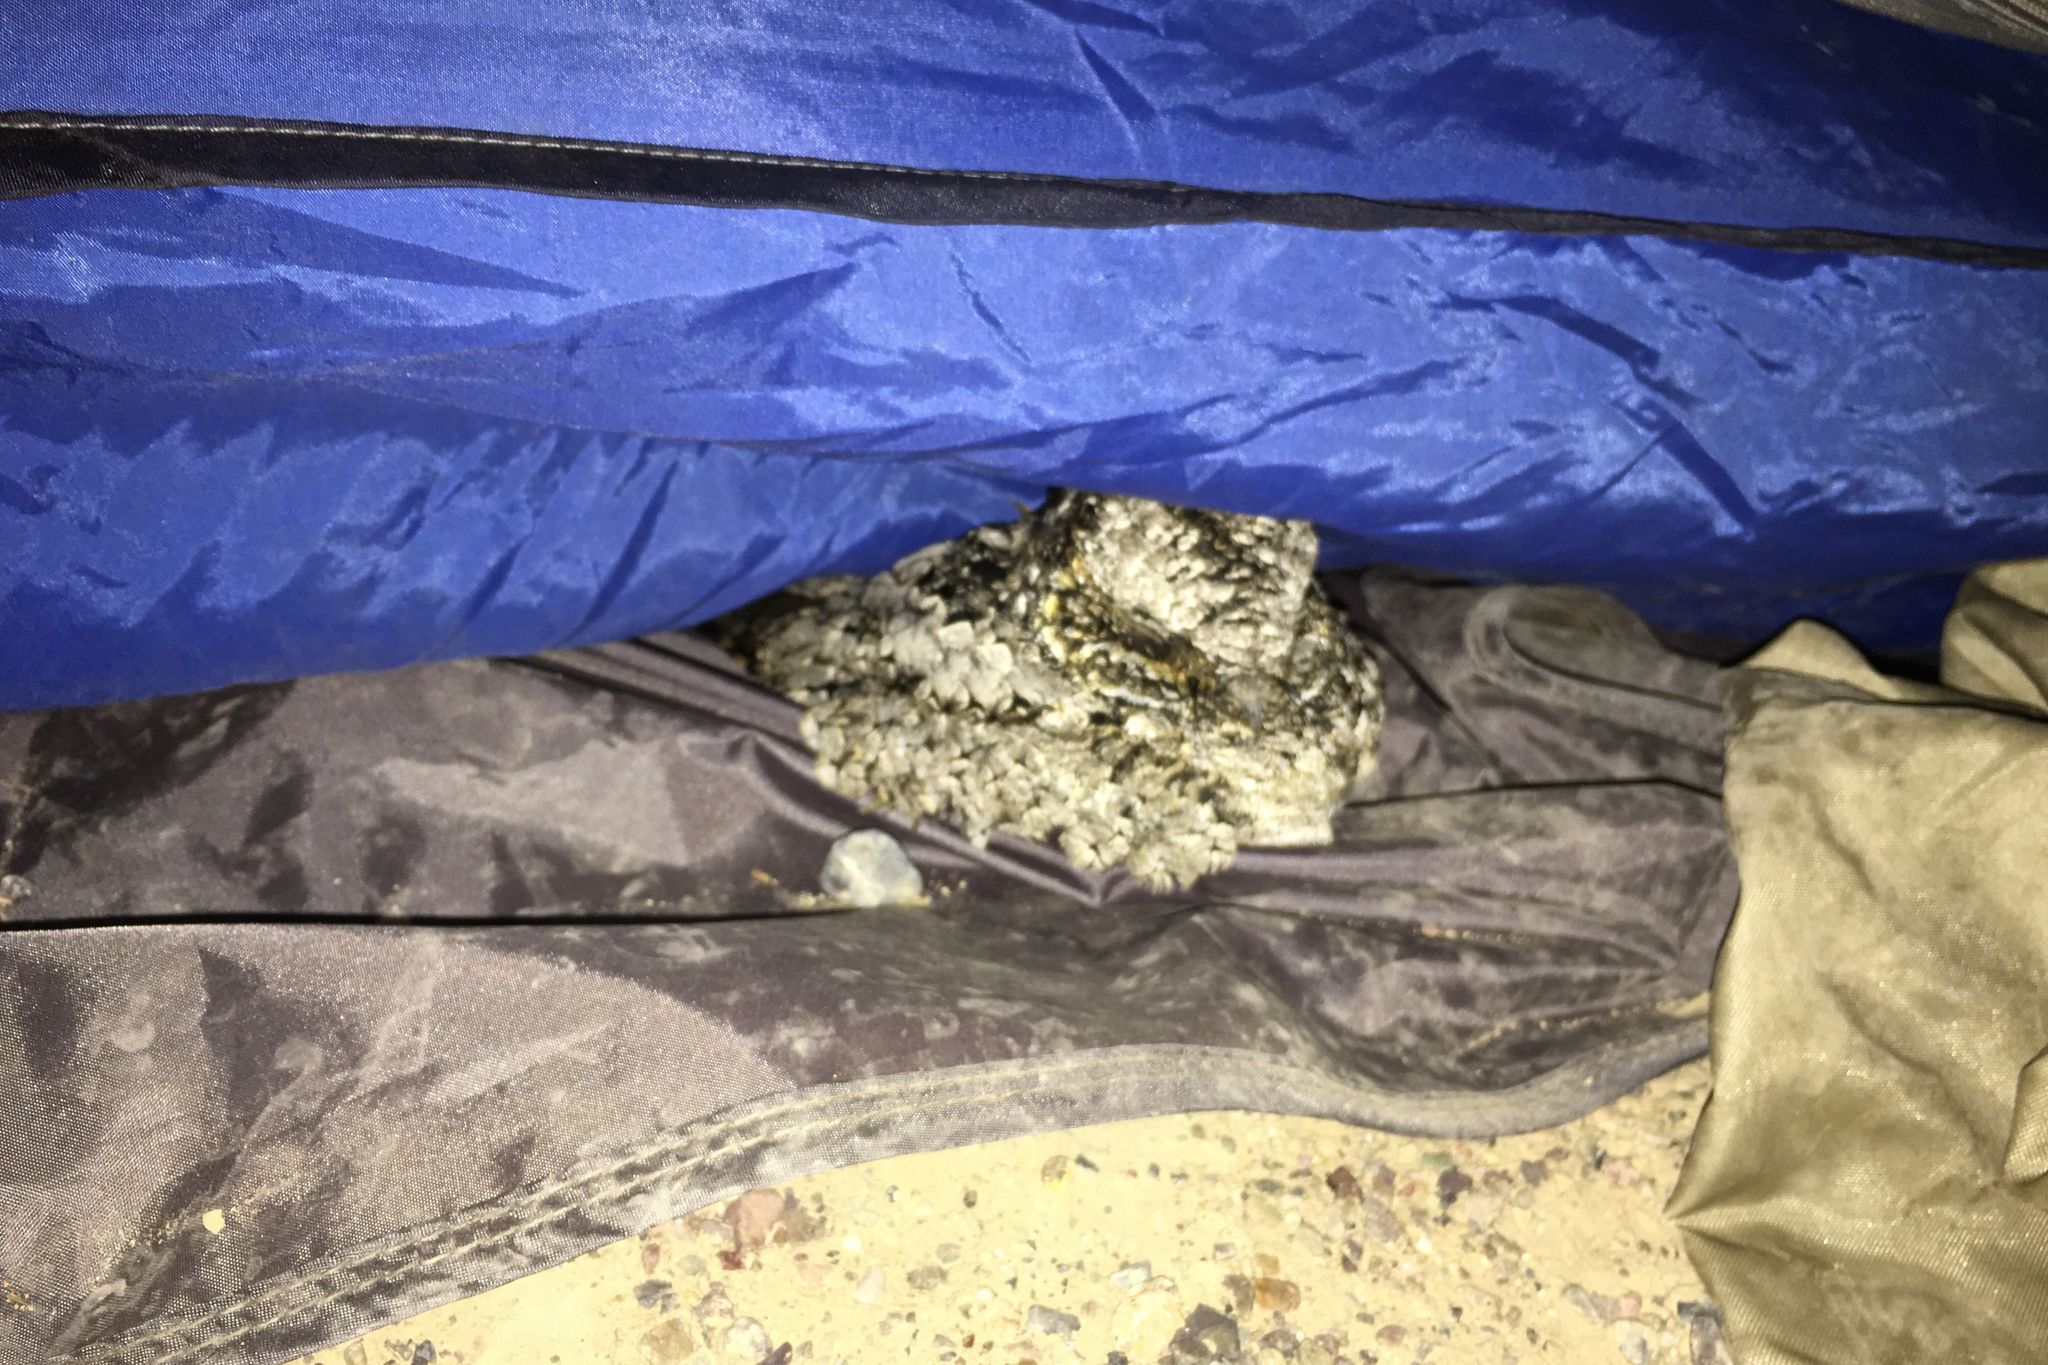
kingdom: Animalia
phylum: Chordata
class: Aves
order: Caprimulgiformes
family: Caprimulgidae
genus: Phalaenoptilus
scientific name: Phalaenoptilus nuttallii
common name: Common poorwill
